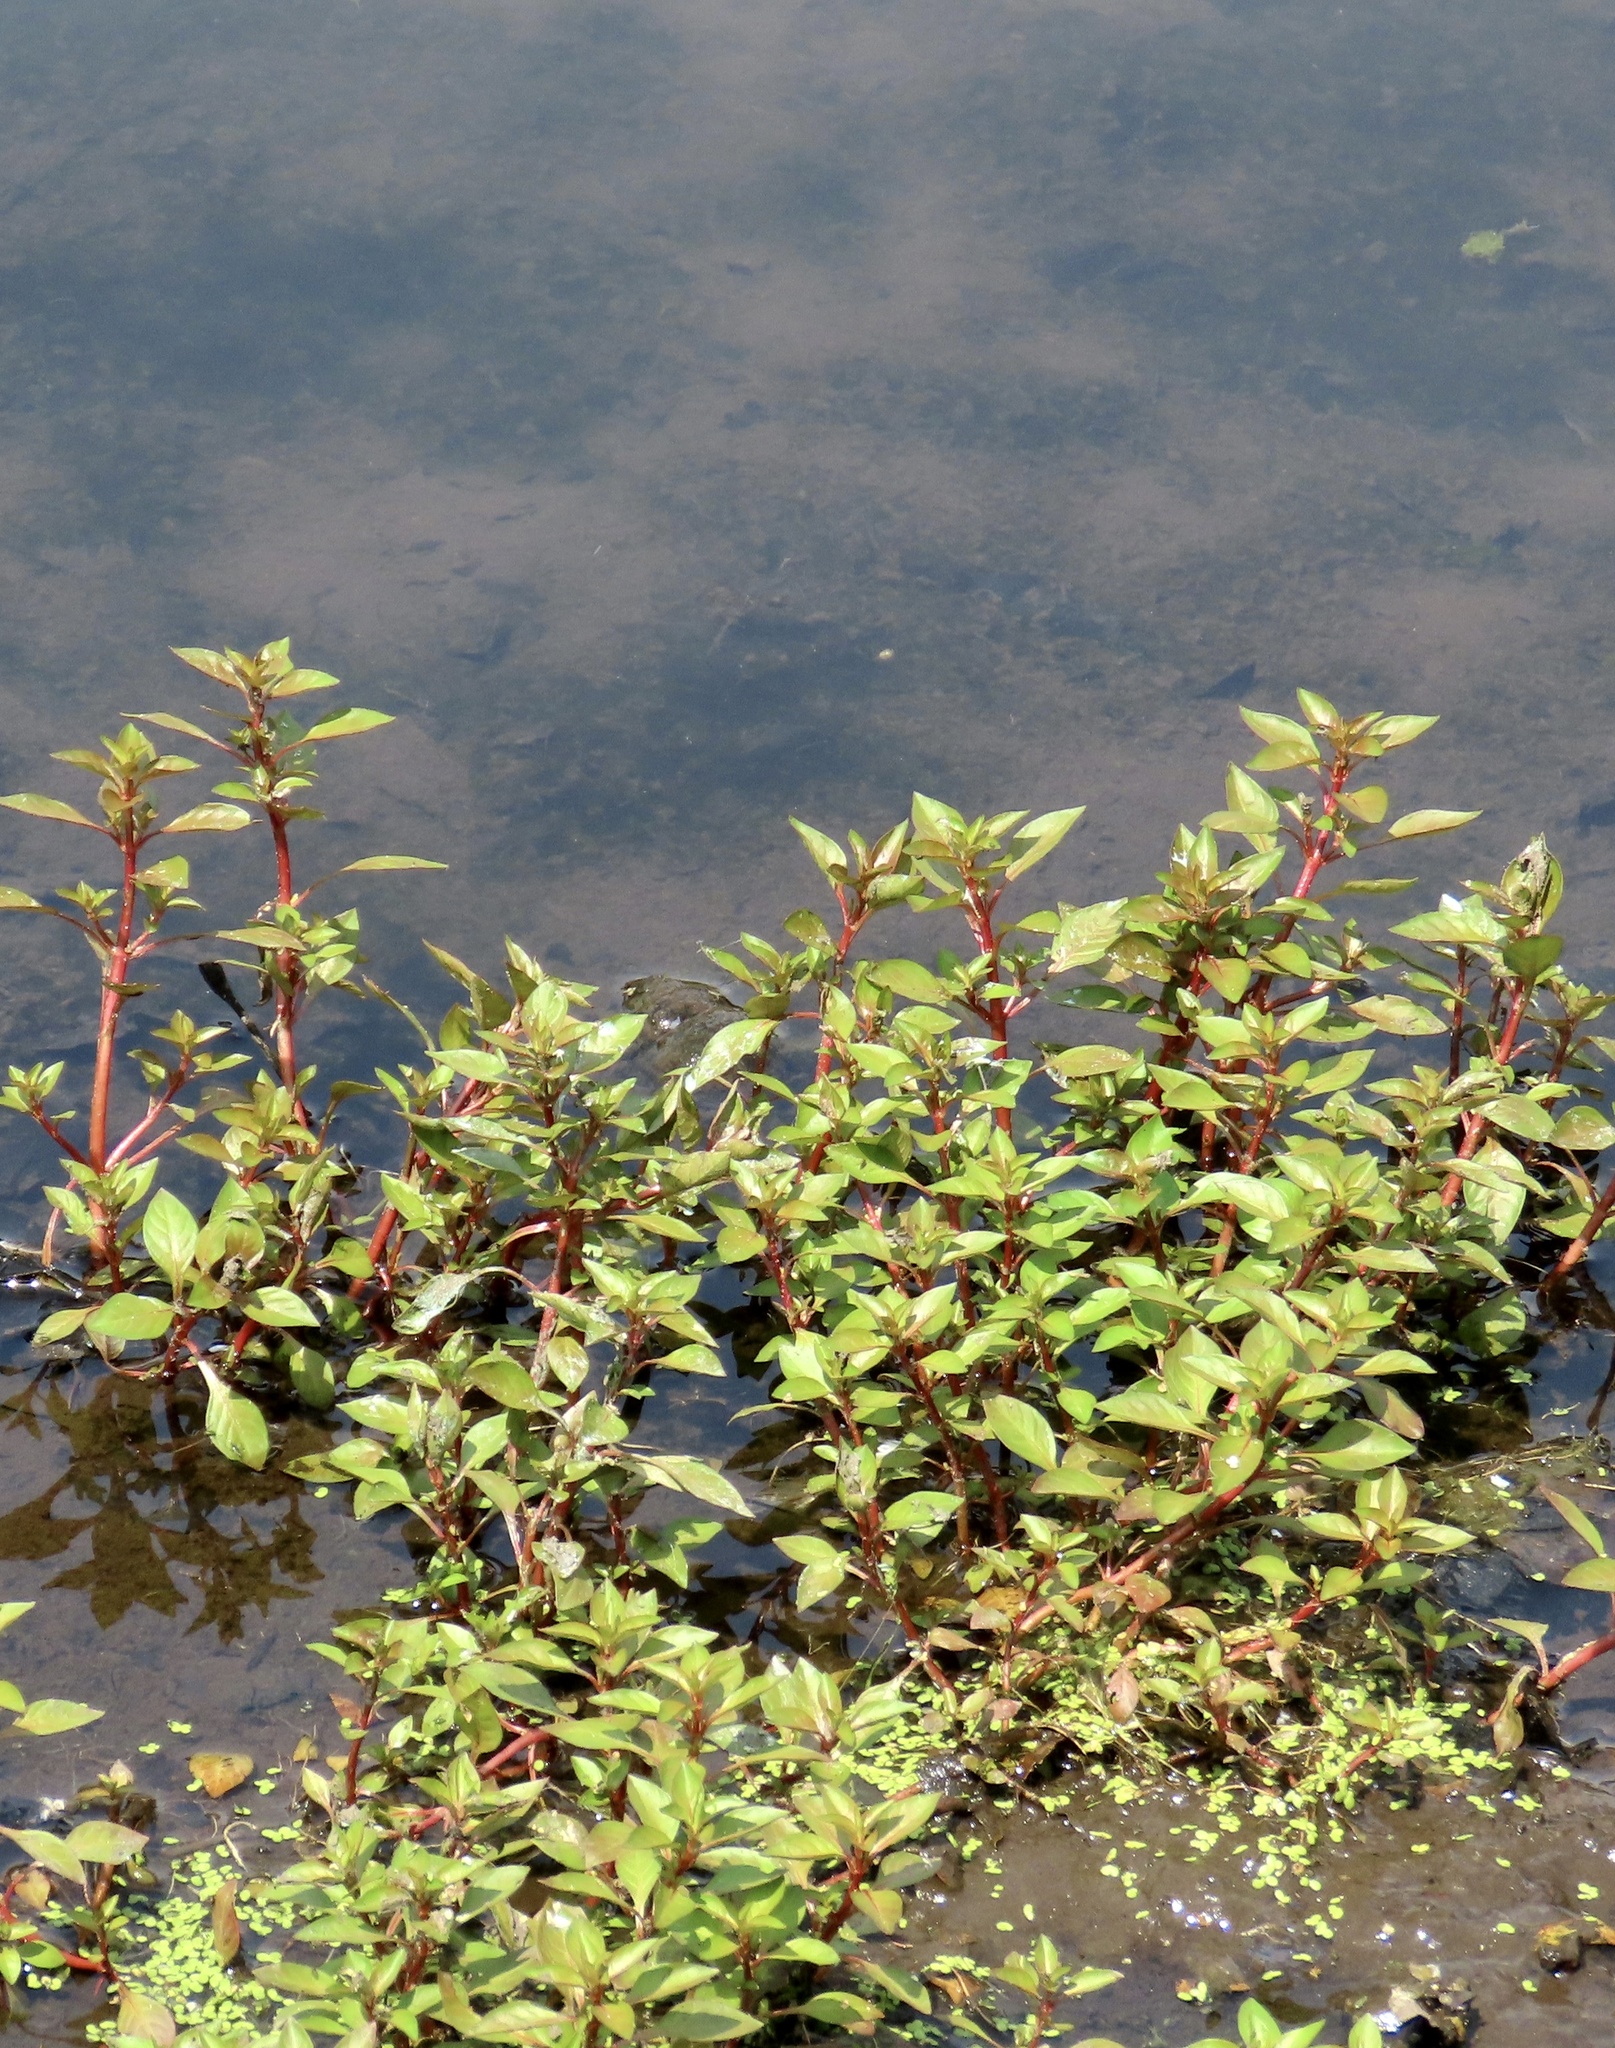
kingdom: Plantae
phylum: Tracheophyta
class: Magnoliopsida
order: Myrtales
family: Onagraceae
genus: Ludwigia
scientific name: Ludwigia palustris
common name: Hampshire-purslane
